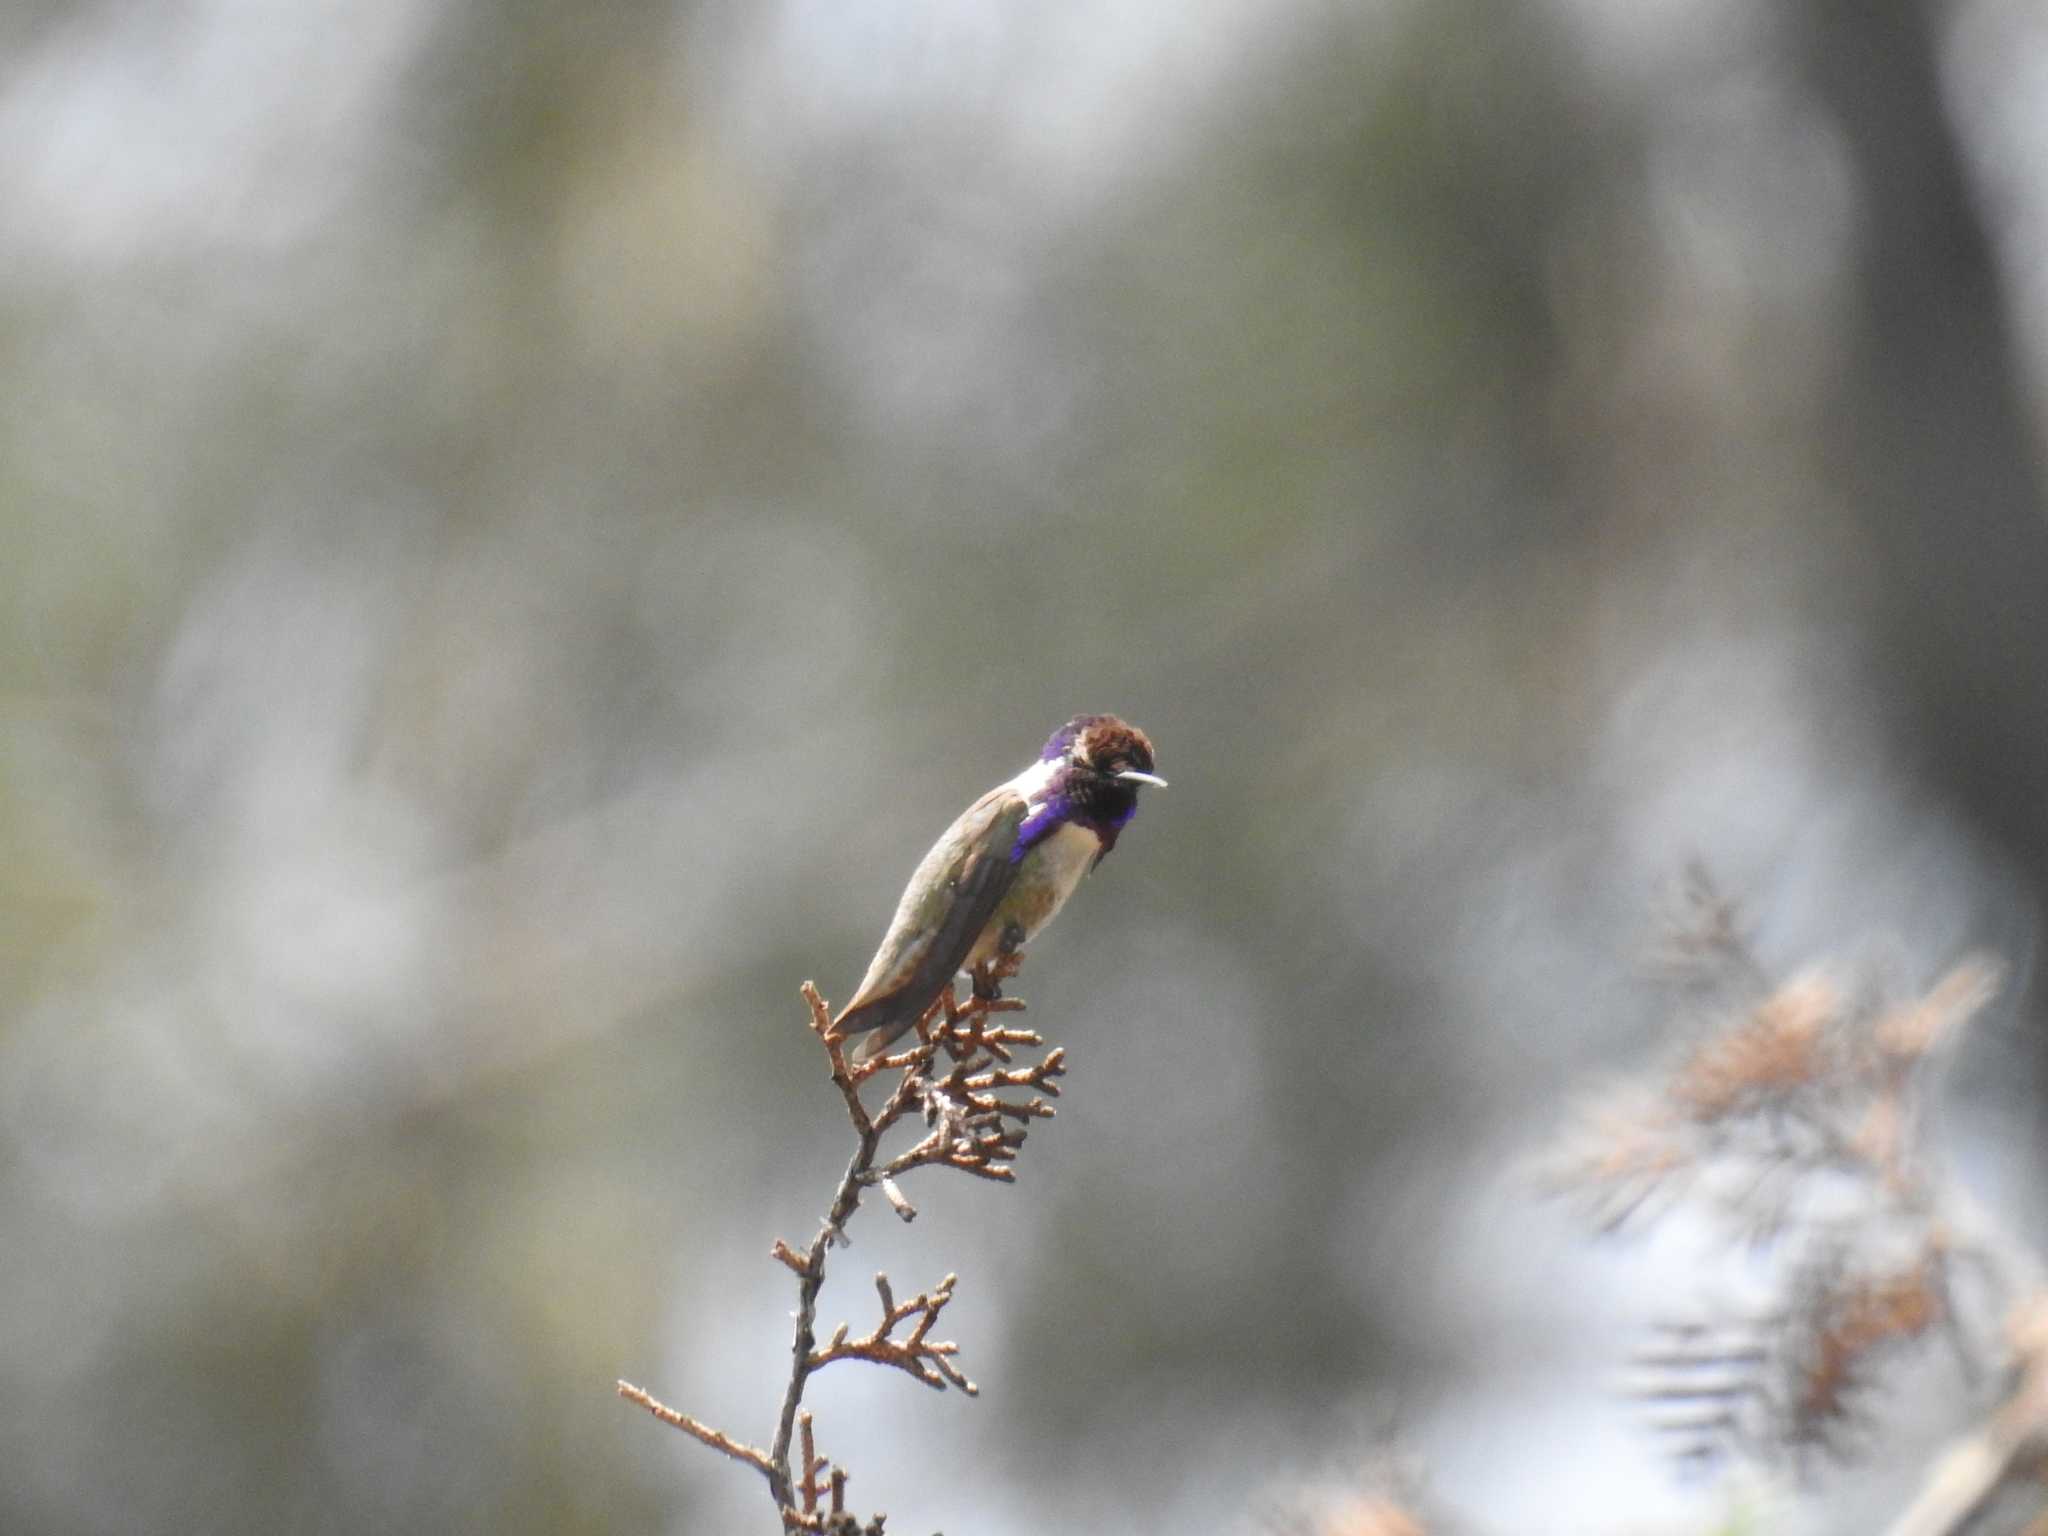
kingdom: Animalia
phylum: Chordata
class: Aves
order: Apodiformes
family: Trochilidae
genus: Calypte
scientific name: Calypte costae
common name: Costa's hummingbird
